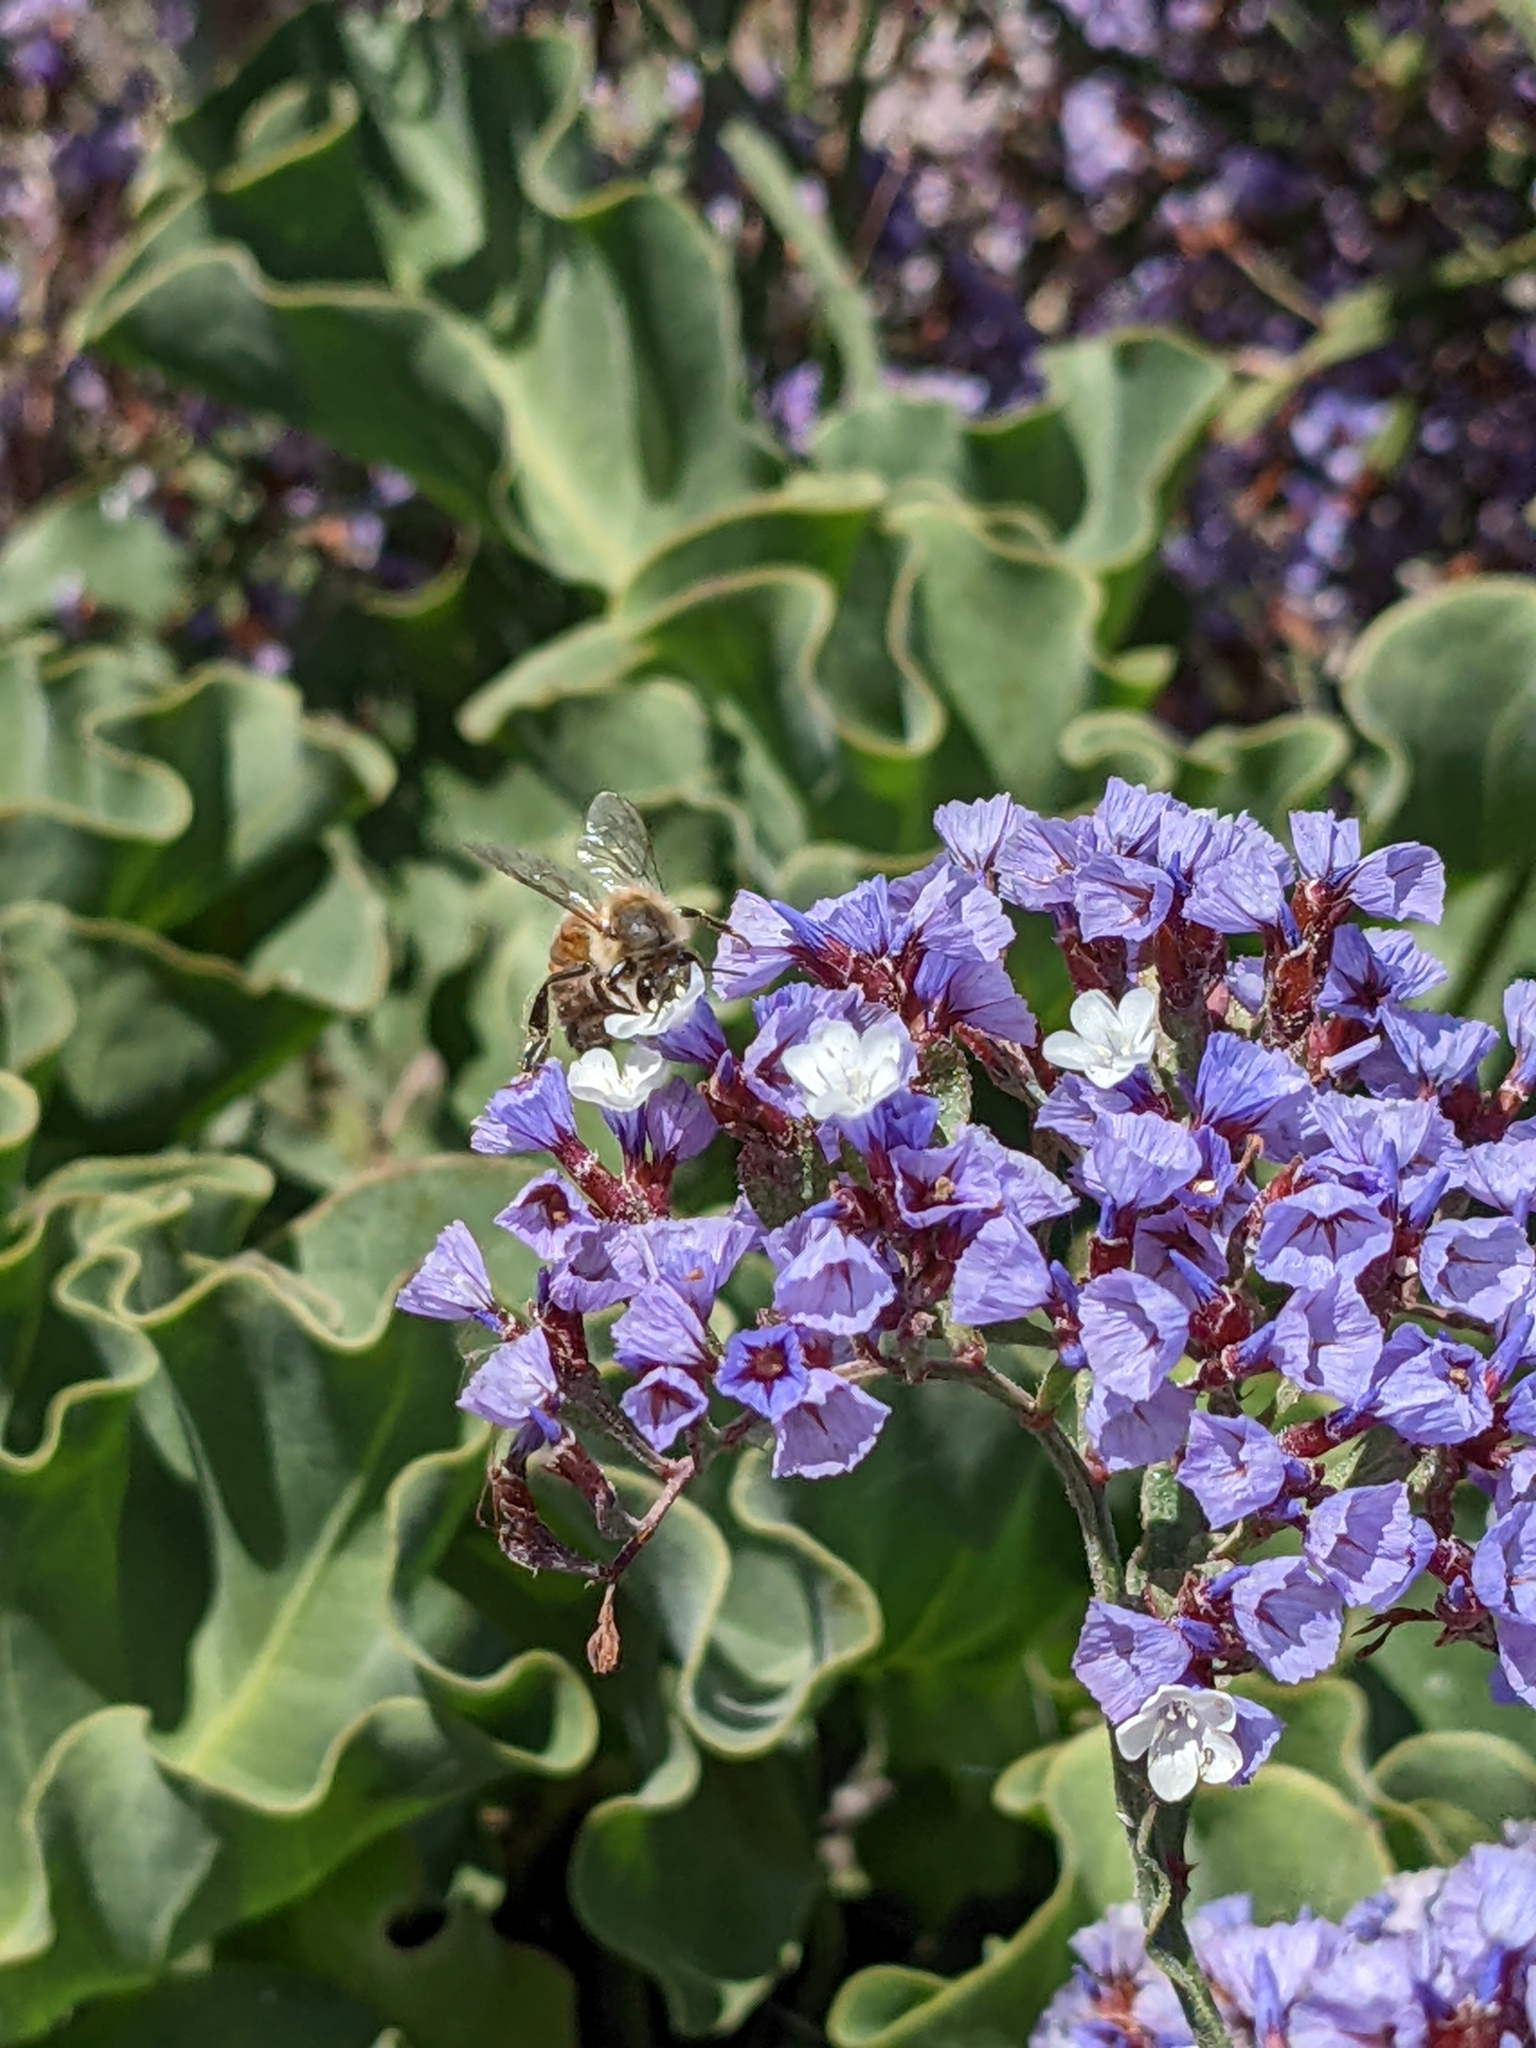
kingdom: Plantae
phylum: Tracheophyta
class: Magnoliopsida
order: Caryophyllales
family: Plumbaginaceae
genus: Limonium
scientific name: Limonium perezii
